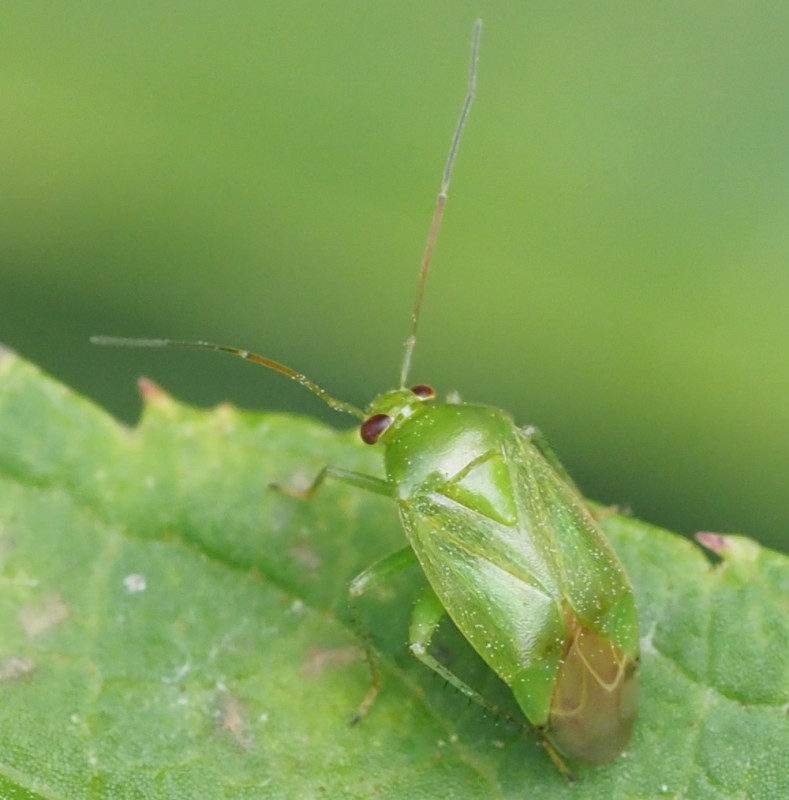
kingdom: Animalia
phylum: Arthropoda
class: Insecta
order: Hemiptera
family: Miridae
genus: Apolygus
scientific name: Apolygus spinolae
